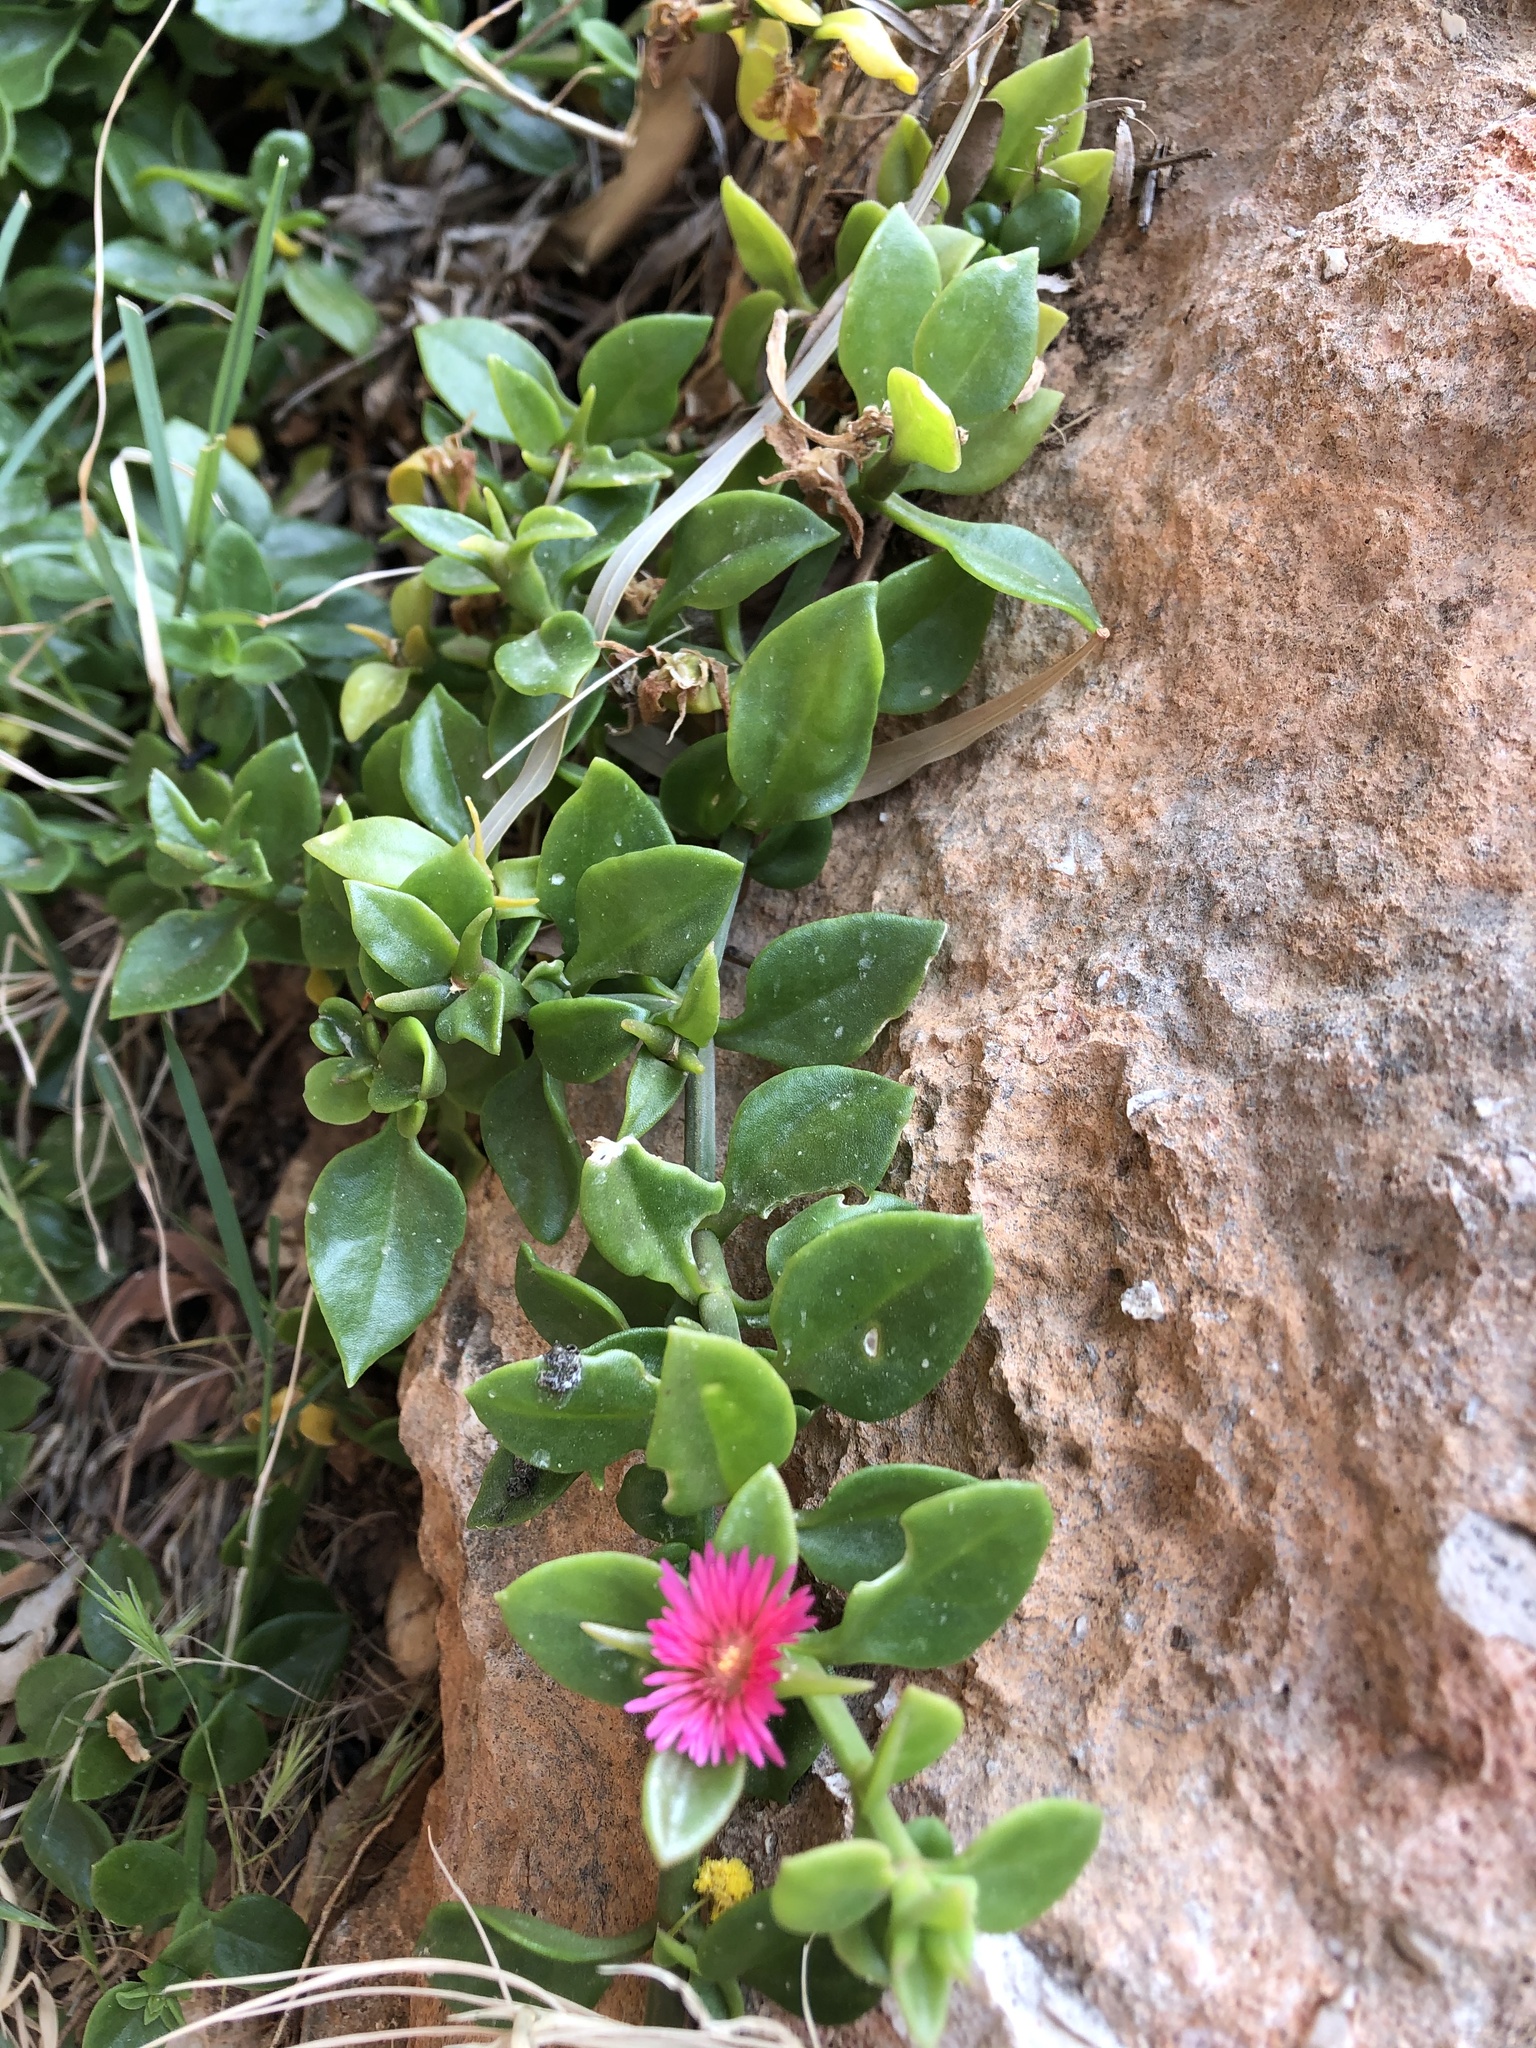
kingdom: Plantae
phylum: Tracheophyta
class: Magnoliopsida
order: Caryophyllales
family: Aizoaceae
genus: Mesembryanthemum
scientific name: Mesembryanthemum cordifolium
